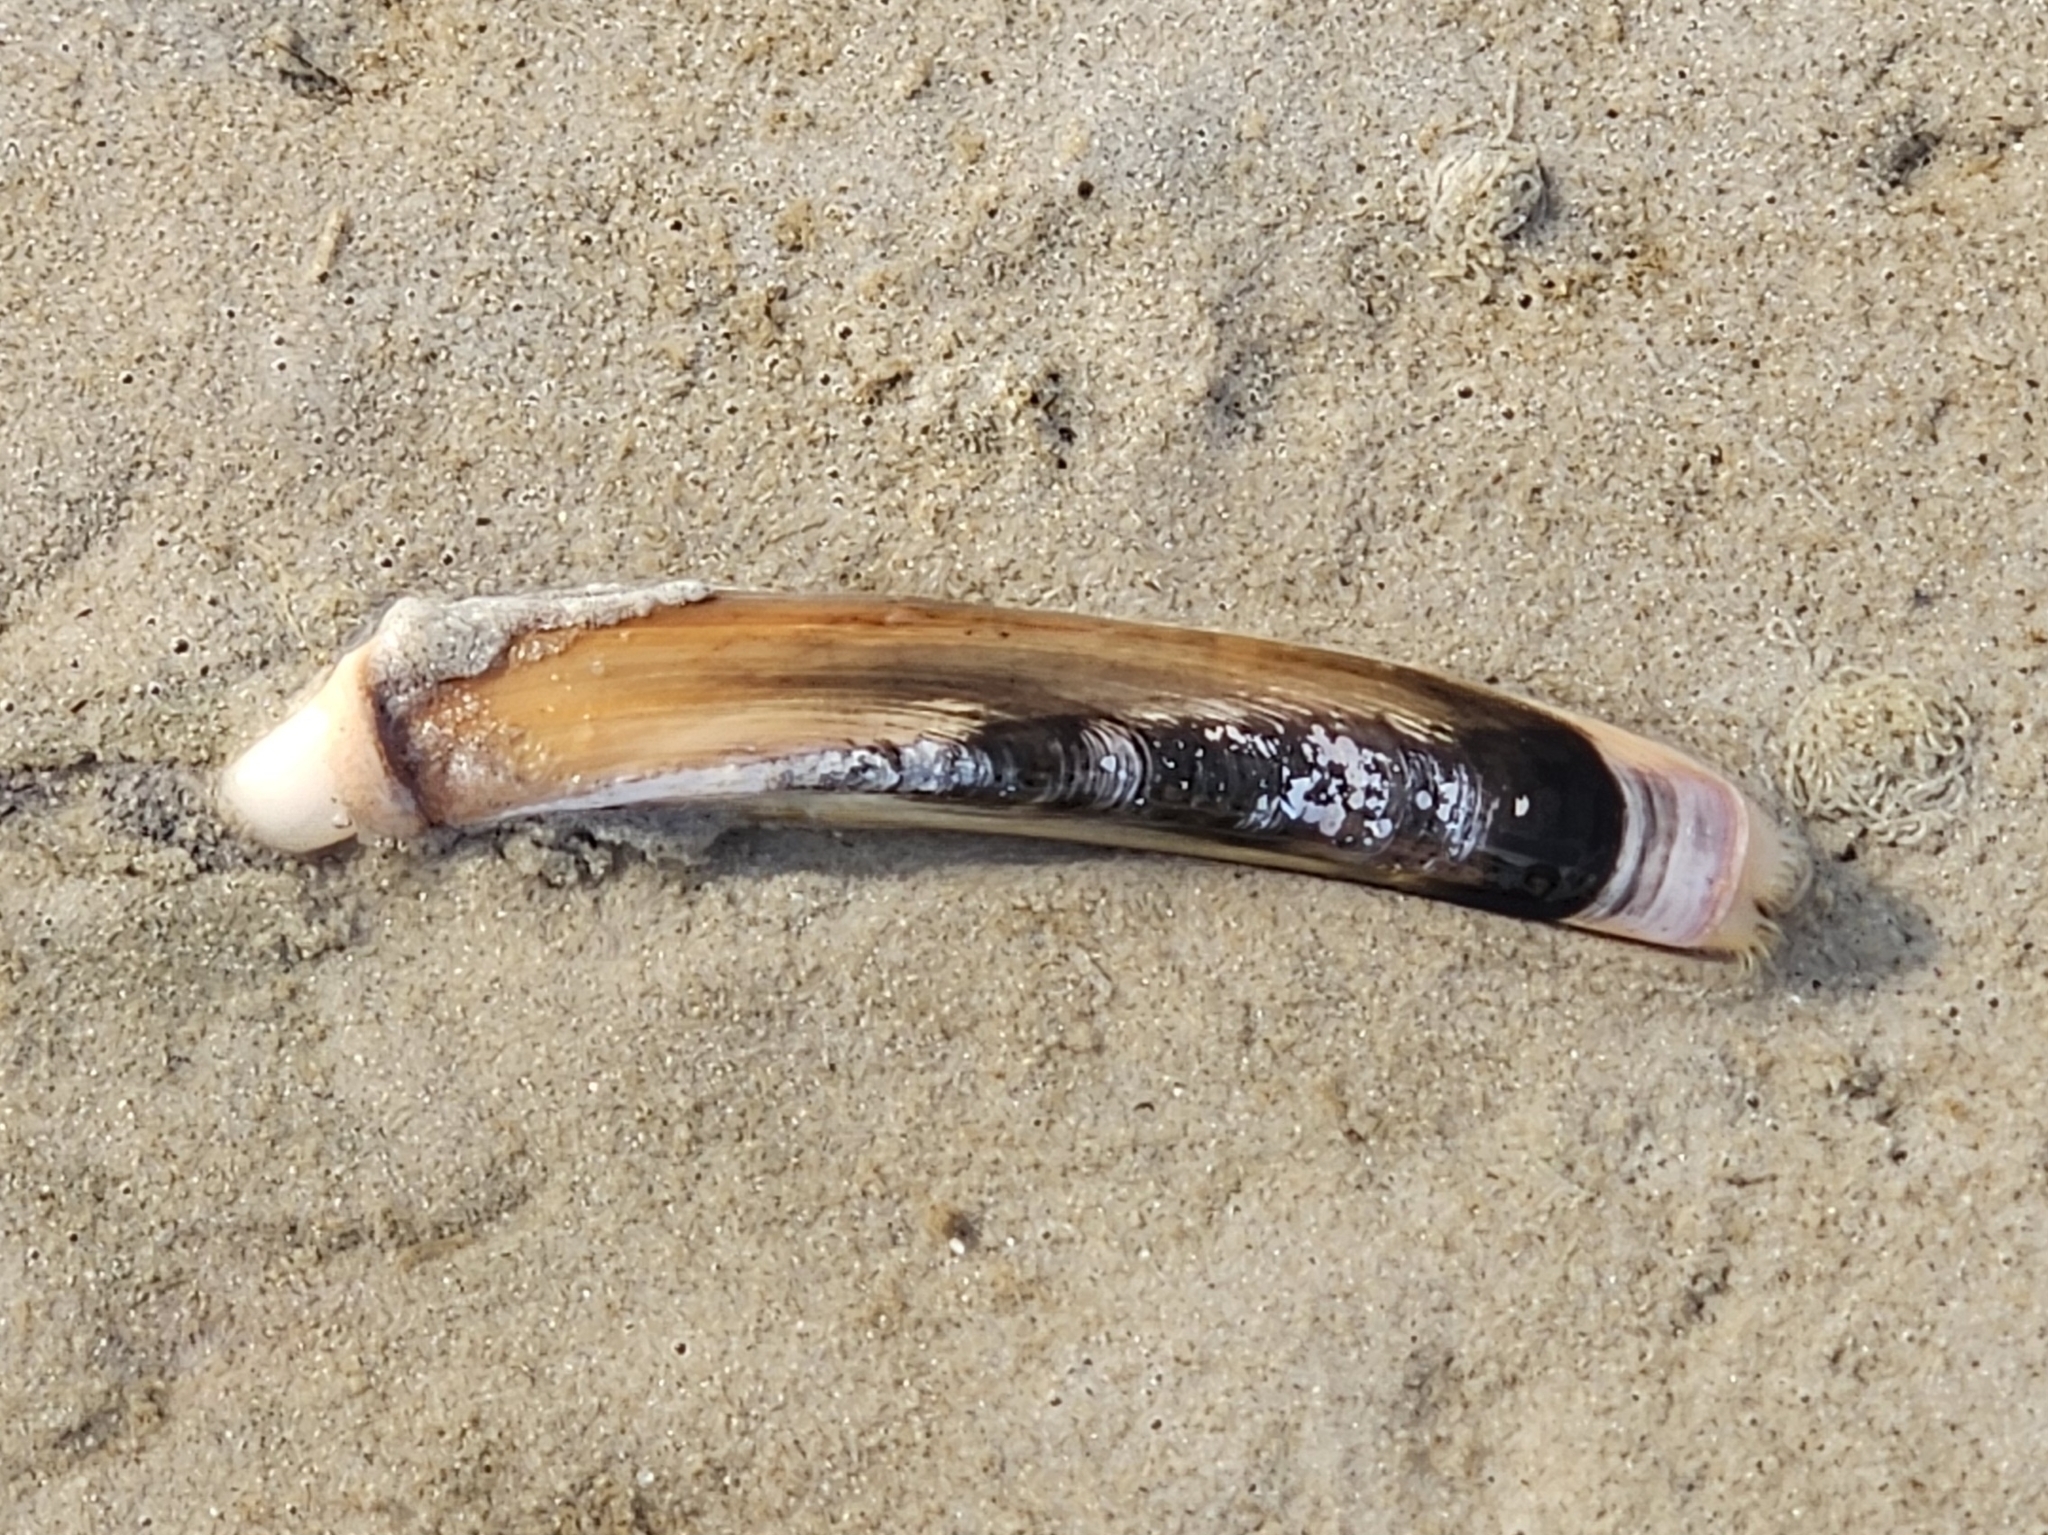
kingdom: Animalia
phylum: Mollusca
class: Bivalvia
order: Adapedonta
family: Pharidae
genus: Ensis
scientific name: Ensis leei
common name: American jack knife clam
